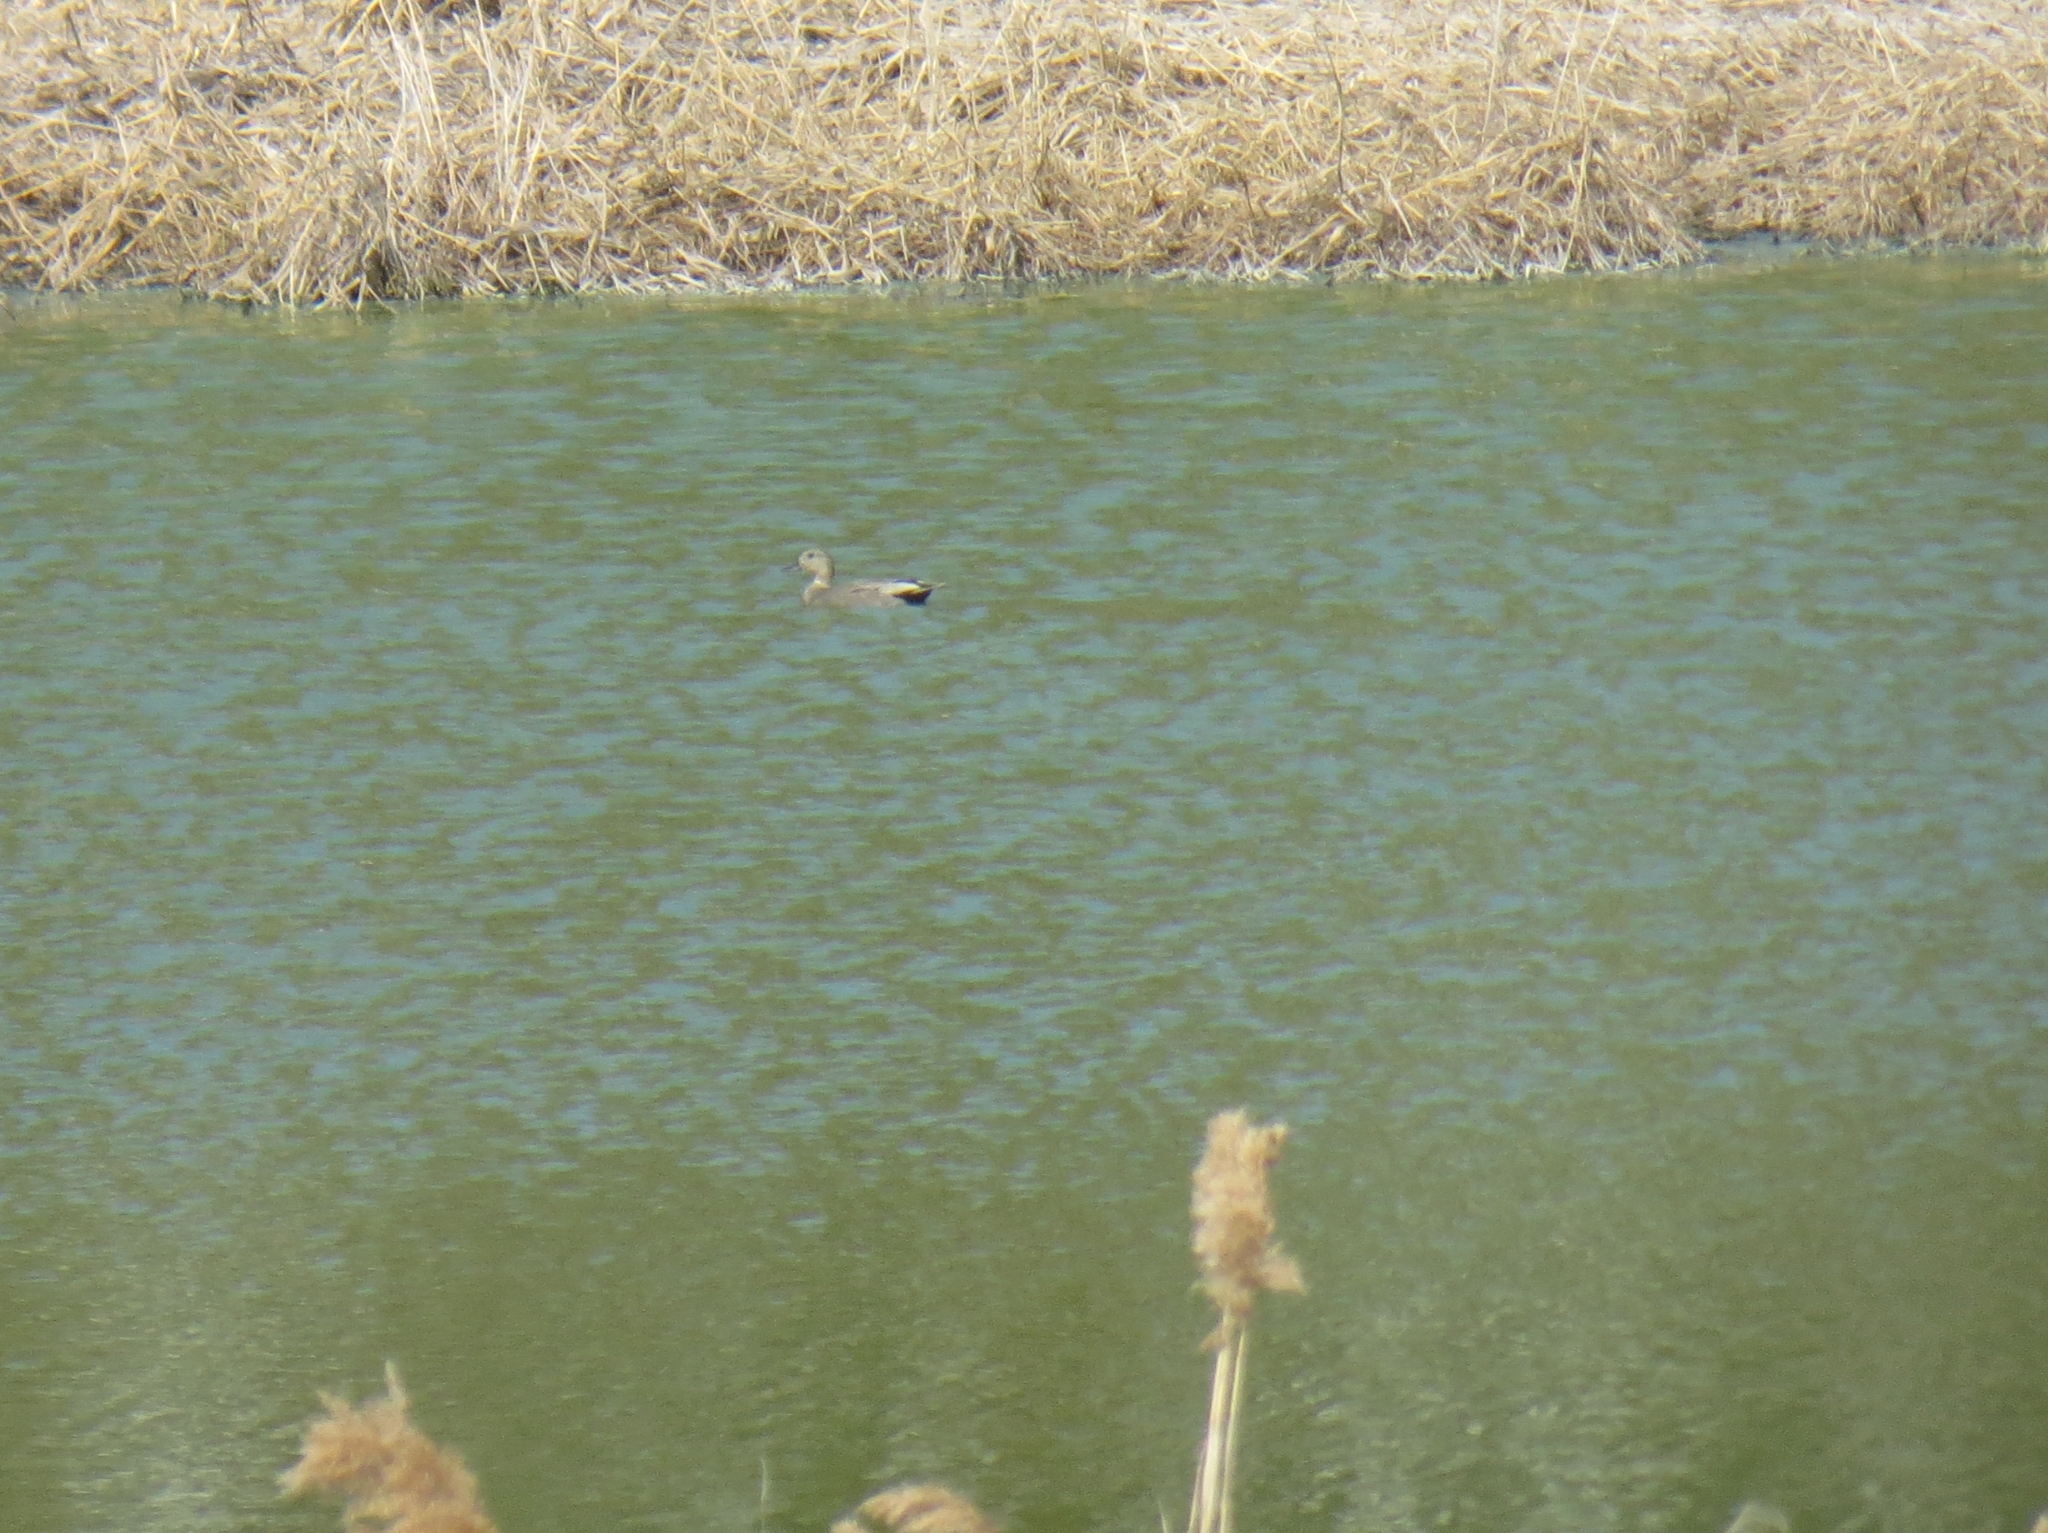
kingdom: Animalia
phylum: Chordata
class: Aves
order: Anseriformes
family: Anatidae
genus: Mareca
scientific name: Mareca strepera
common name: Gadwall
